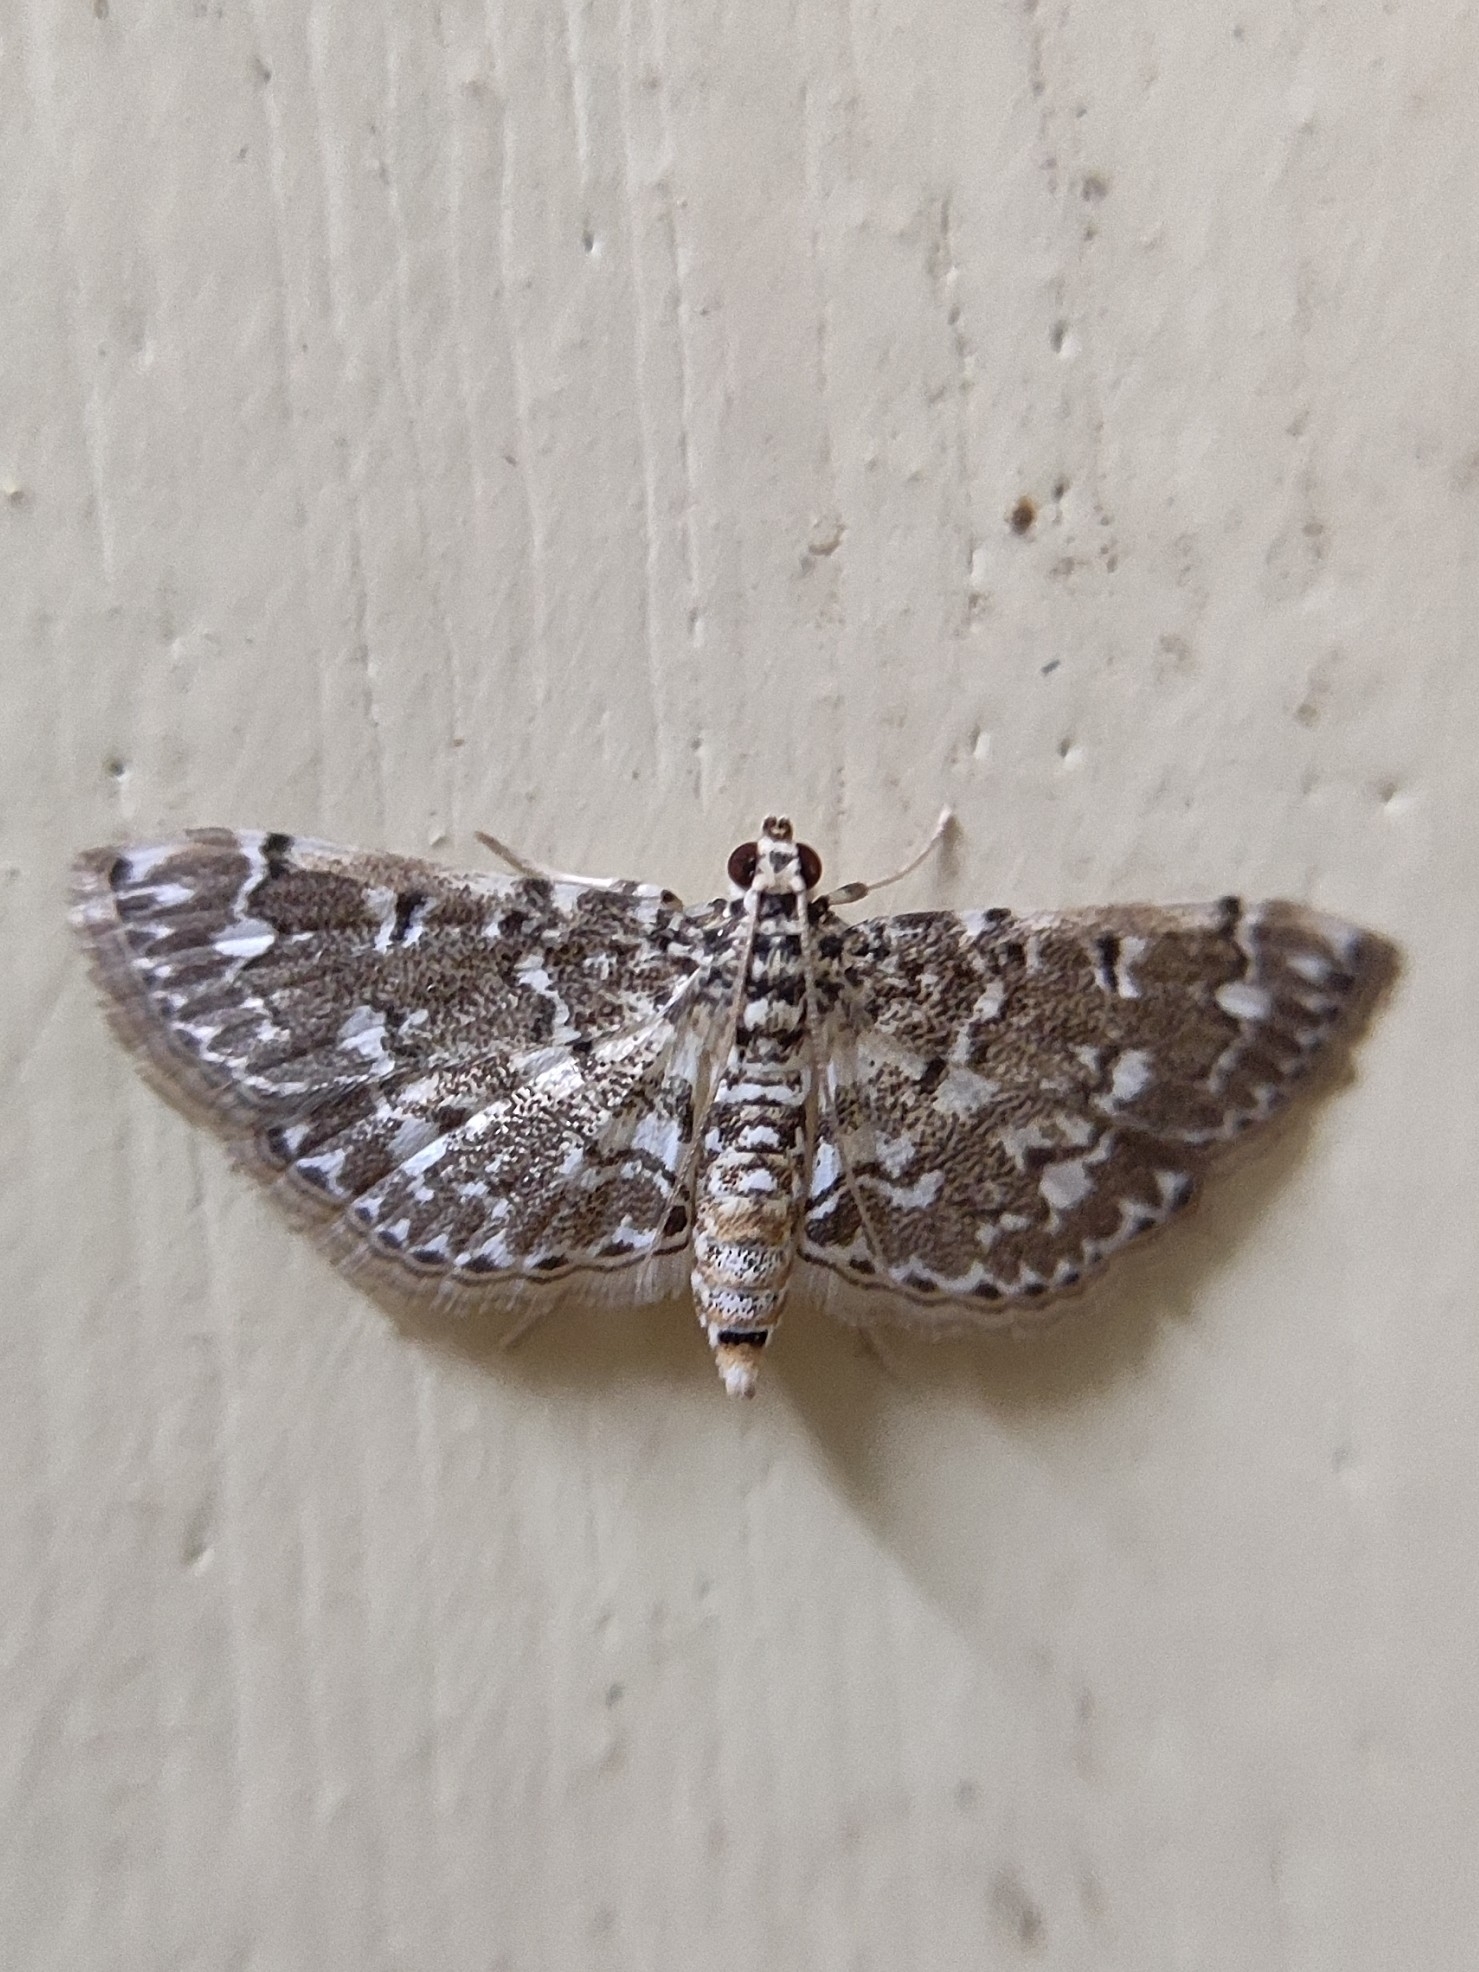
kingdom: Animalia
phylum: Arthropoda
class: Insecta
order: Lepidoptera
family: Crambidae
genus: Metoeca
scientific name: Metoeca foedalis
